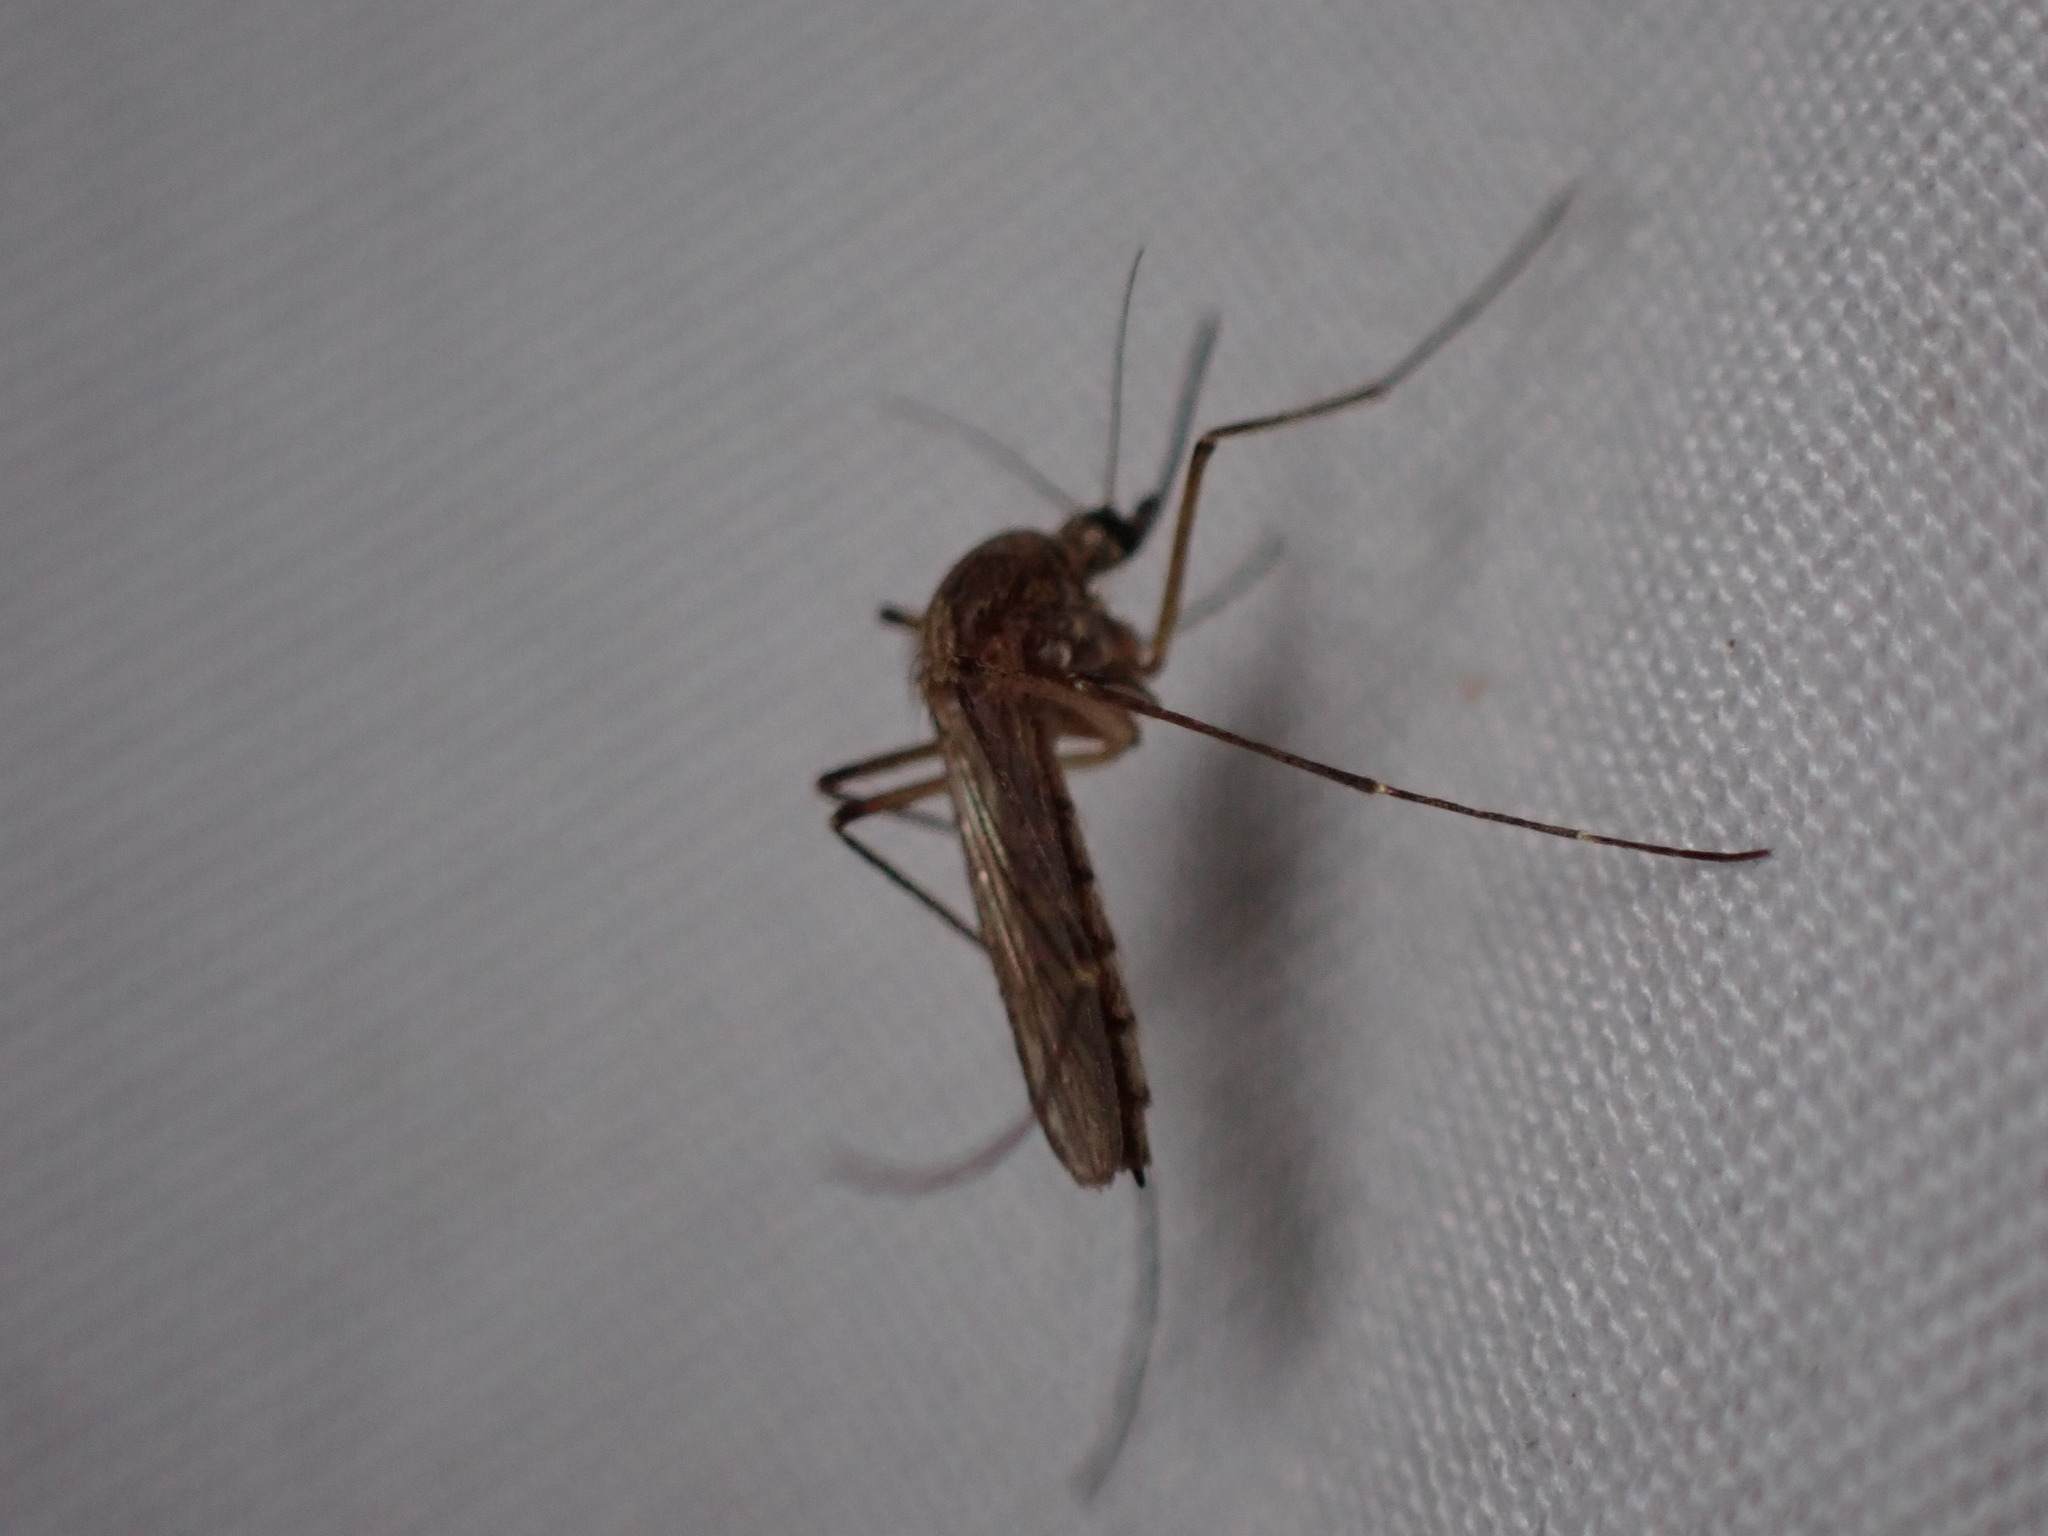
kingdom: Animalia
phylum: Arthropoda
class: Insecta
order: Diptera
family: Culicidae
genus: Aedes
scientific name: Aedes vexans
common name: Inland floodwater mosquito
